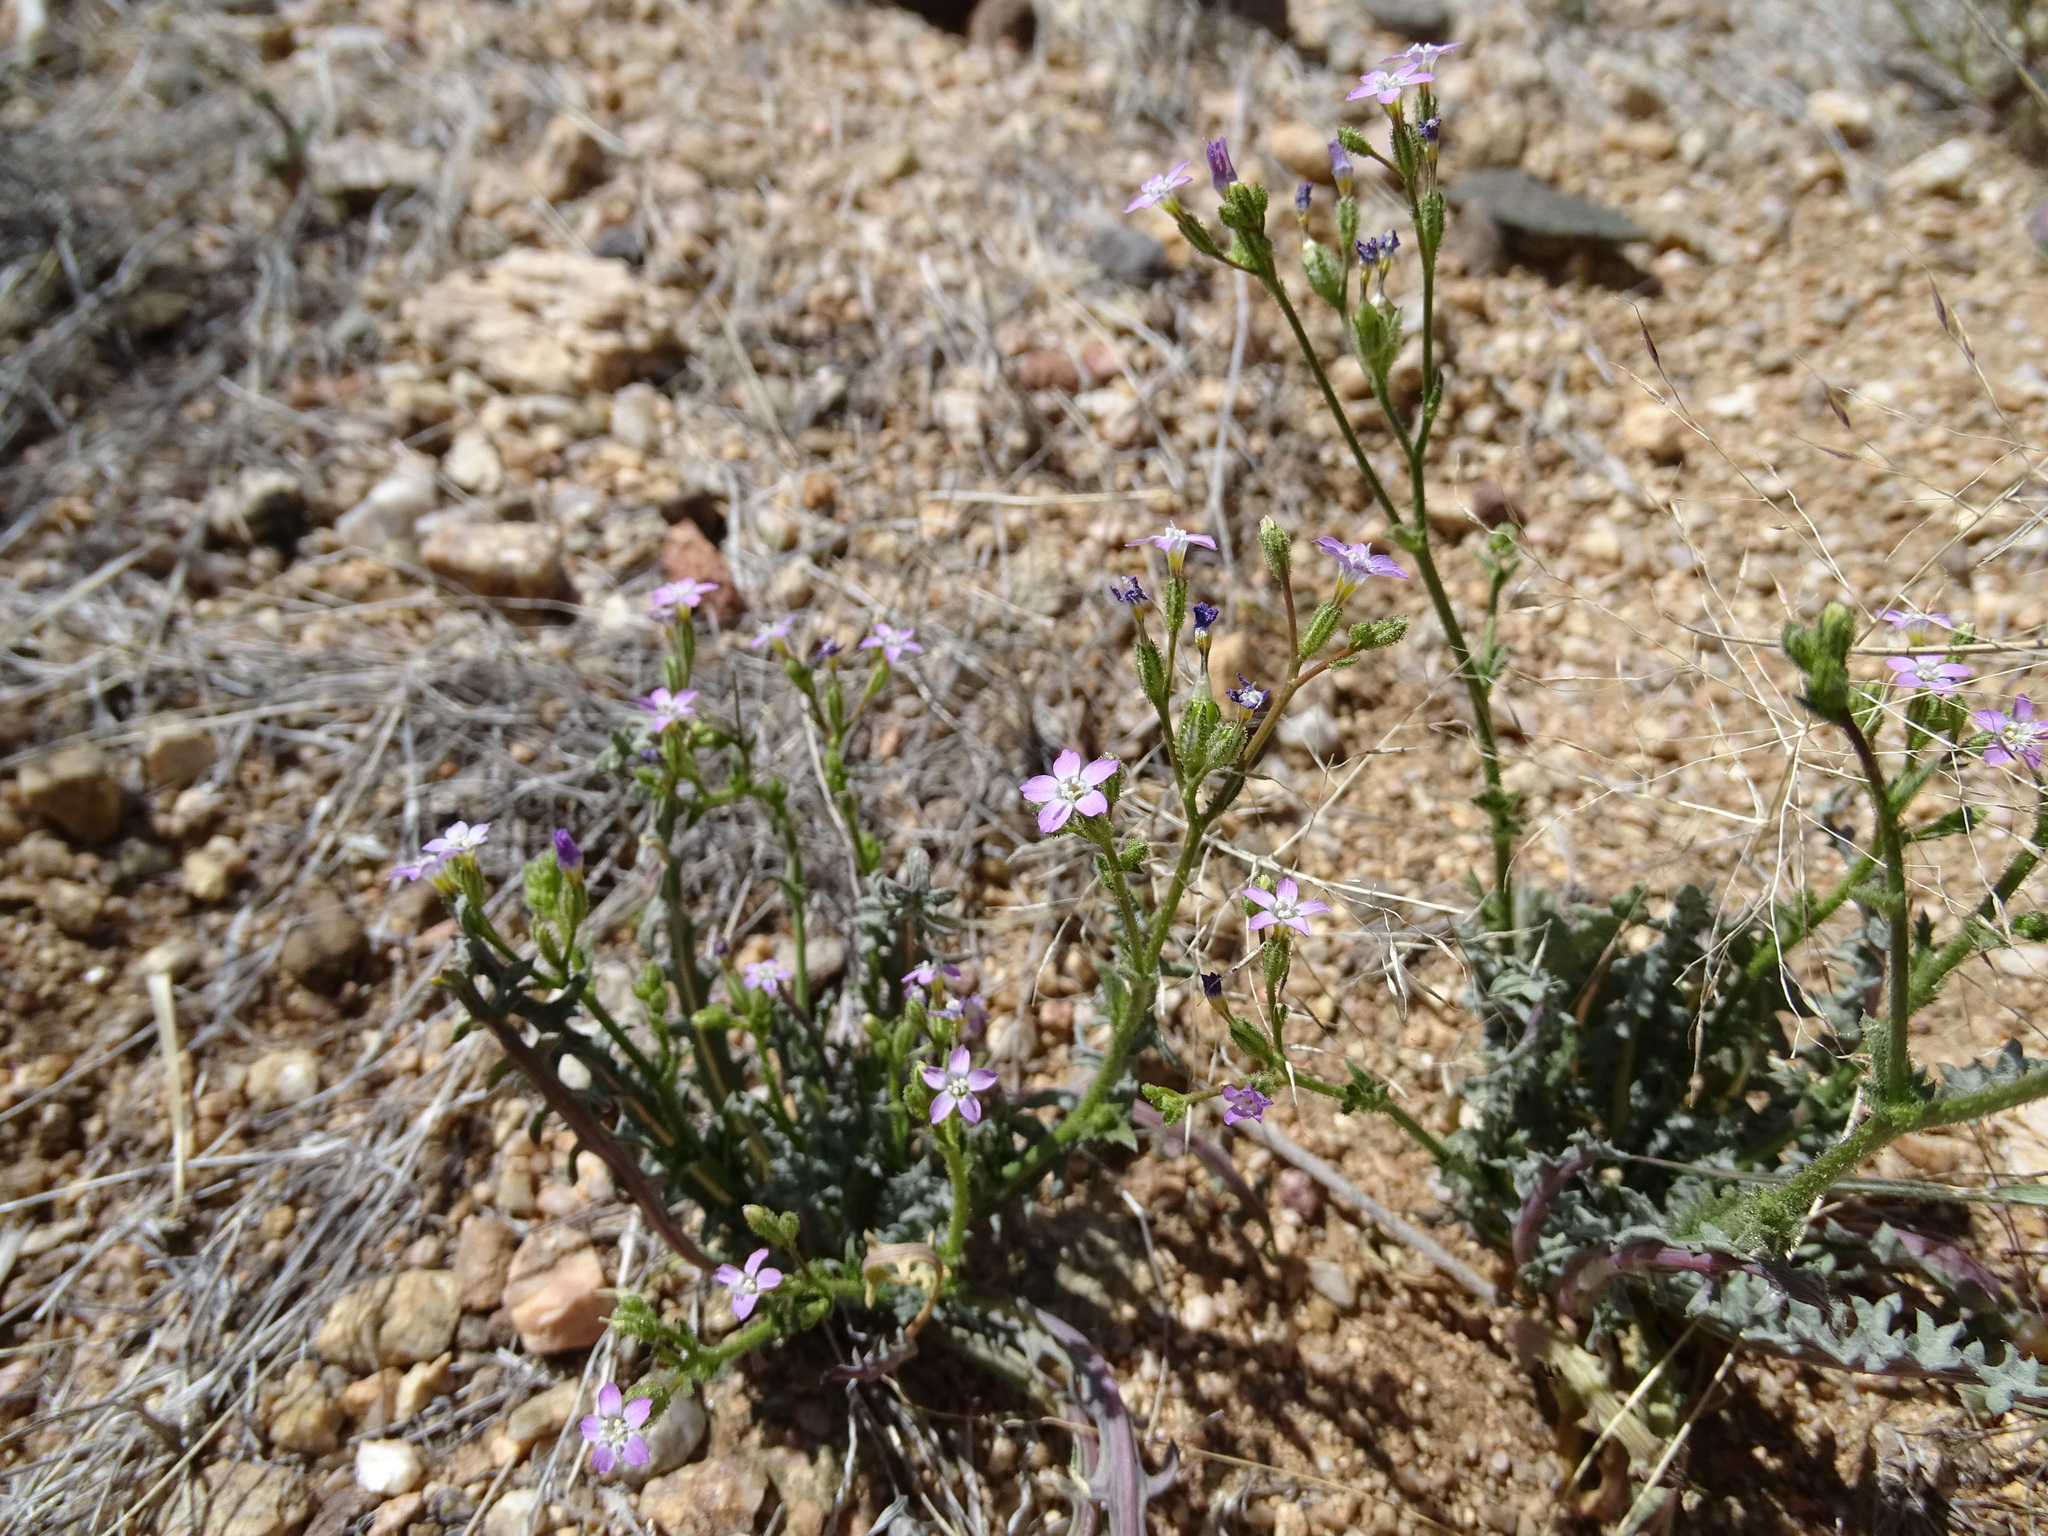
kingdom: Plantae
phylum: Tracheophyta
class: Magnoliopsida
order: Ericales
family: Polemoniaceae
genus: Gilia
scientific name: Gilia sinuata
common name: Rosy gilia
